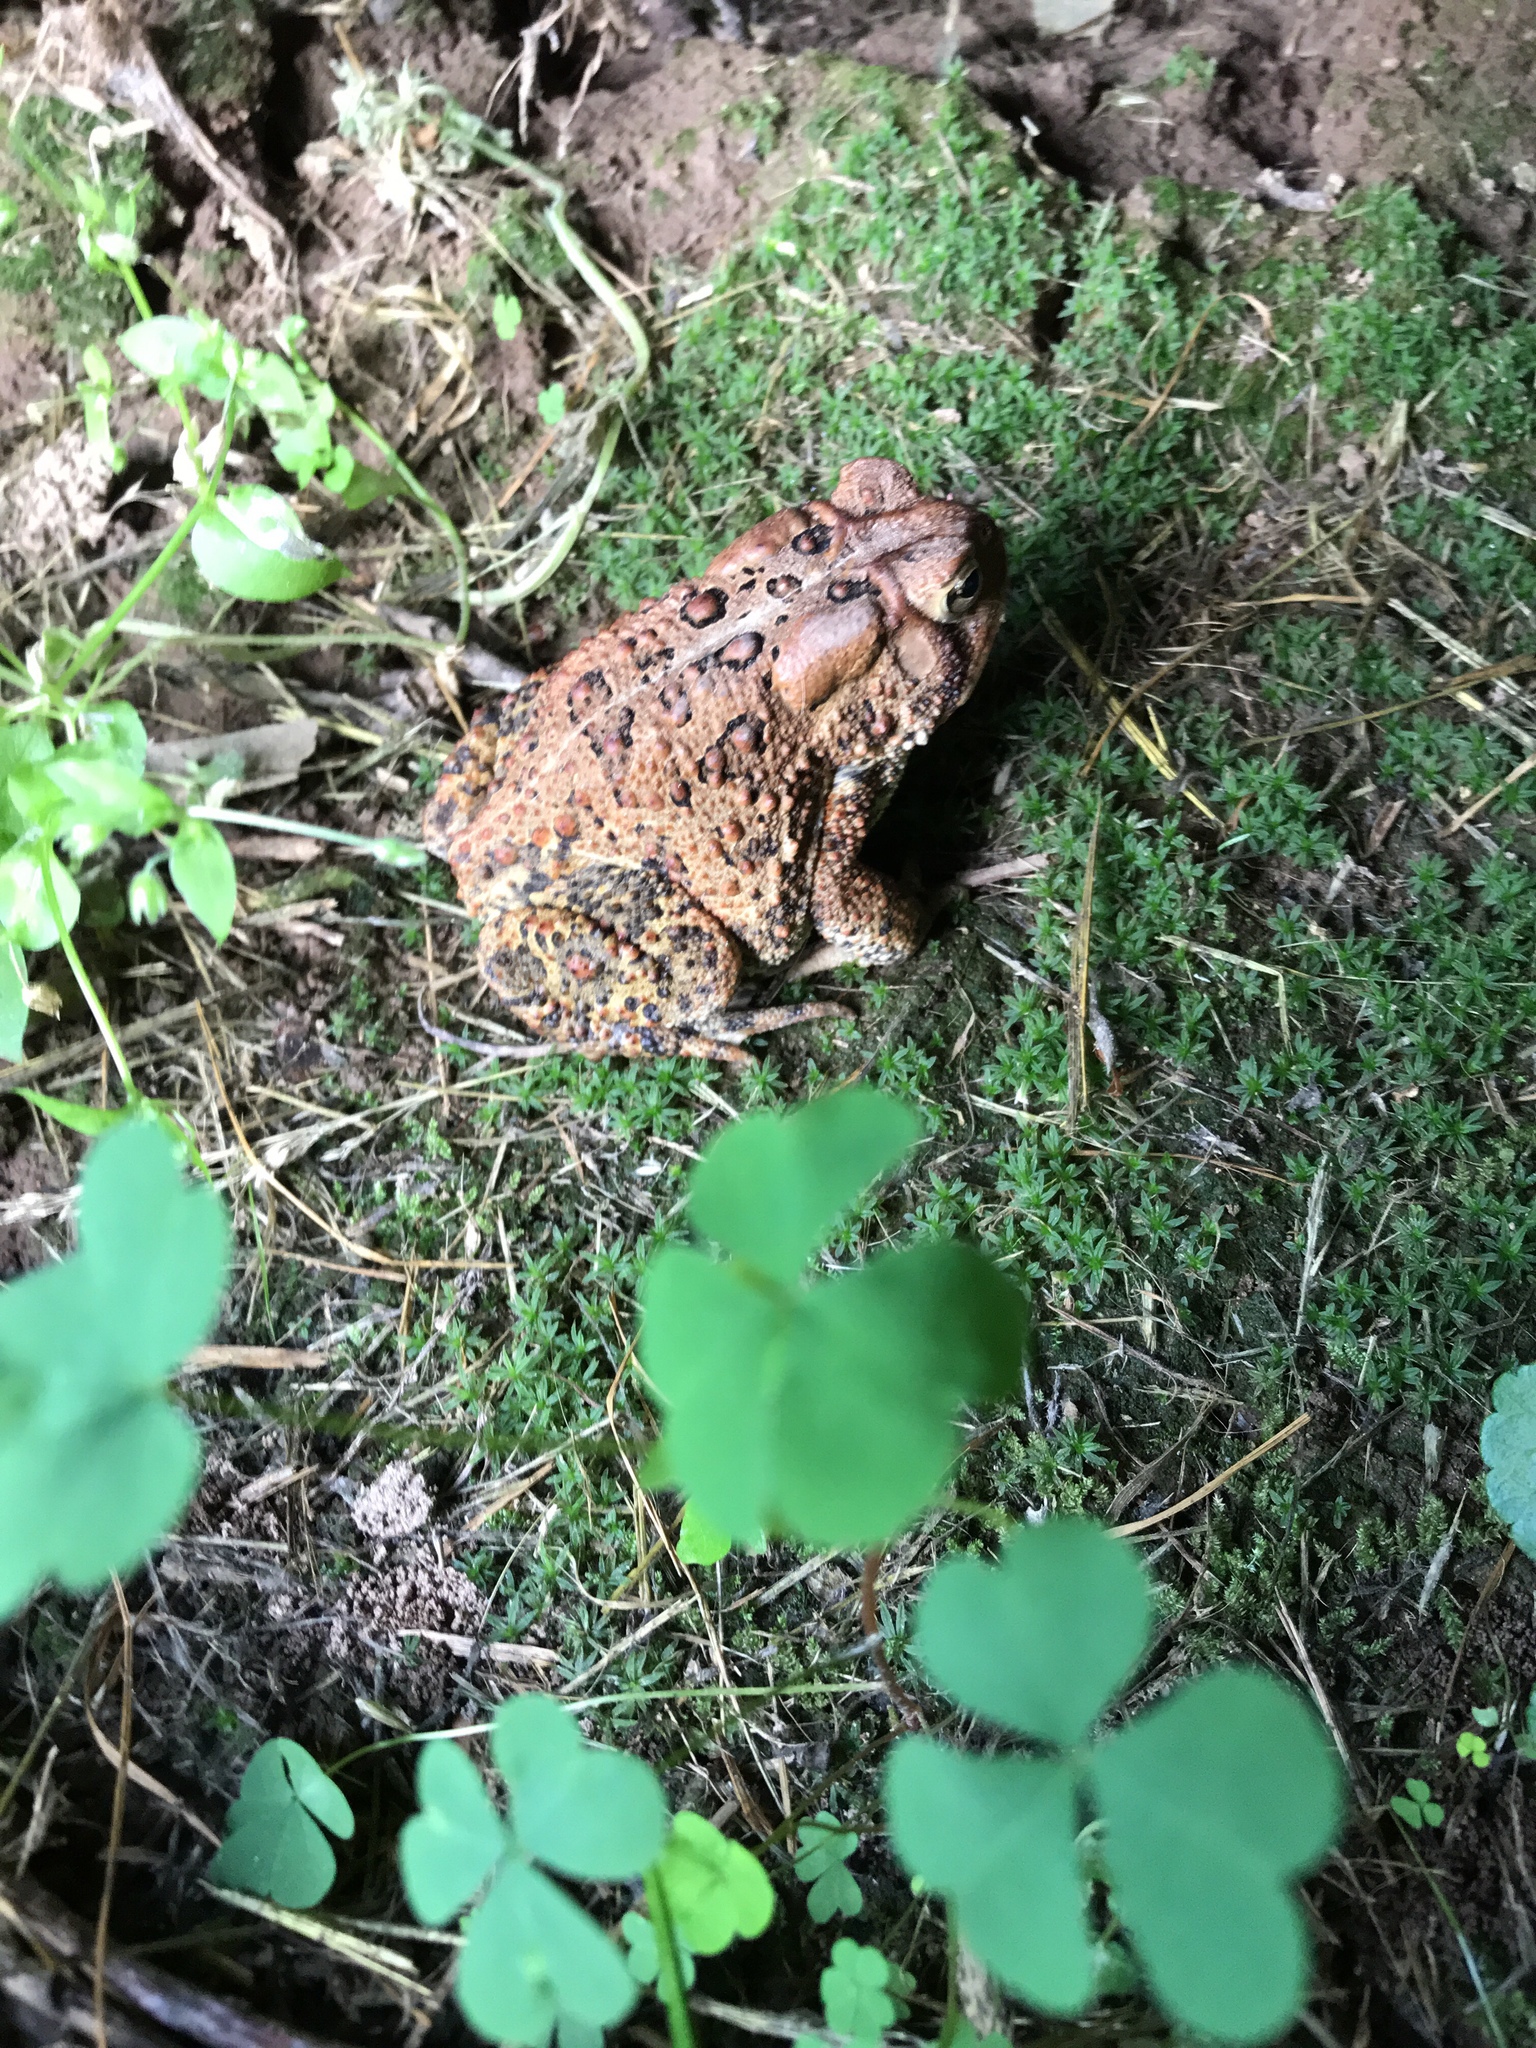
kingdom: Animalia
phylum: Chordata
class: Amphibia
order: Anura
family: Bufonidae
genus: Anaxyrus
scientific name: Anaxyrus americanus
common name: American toad
